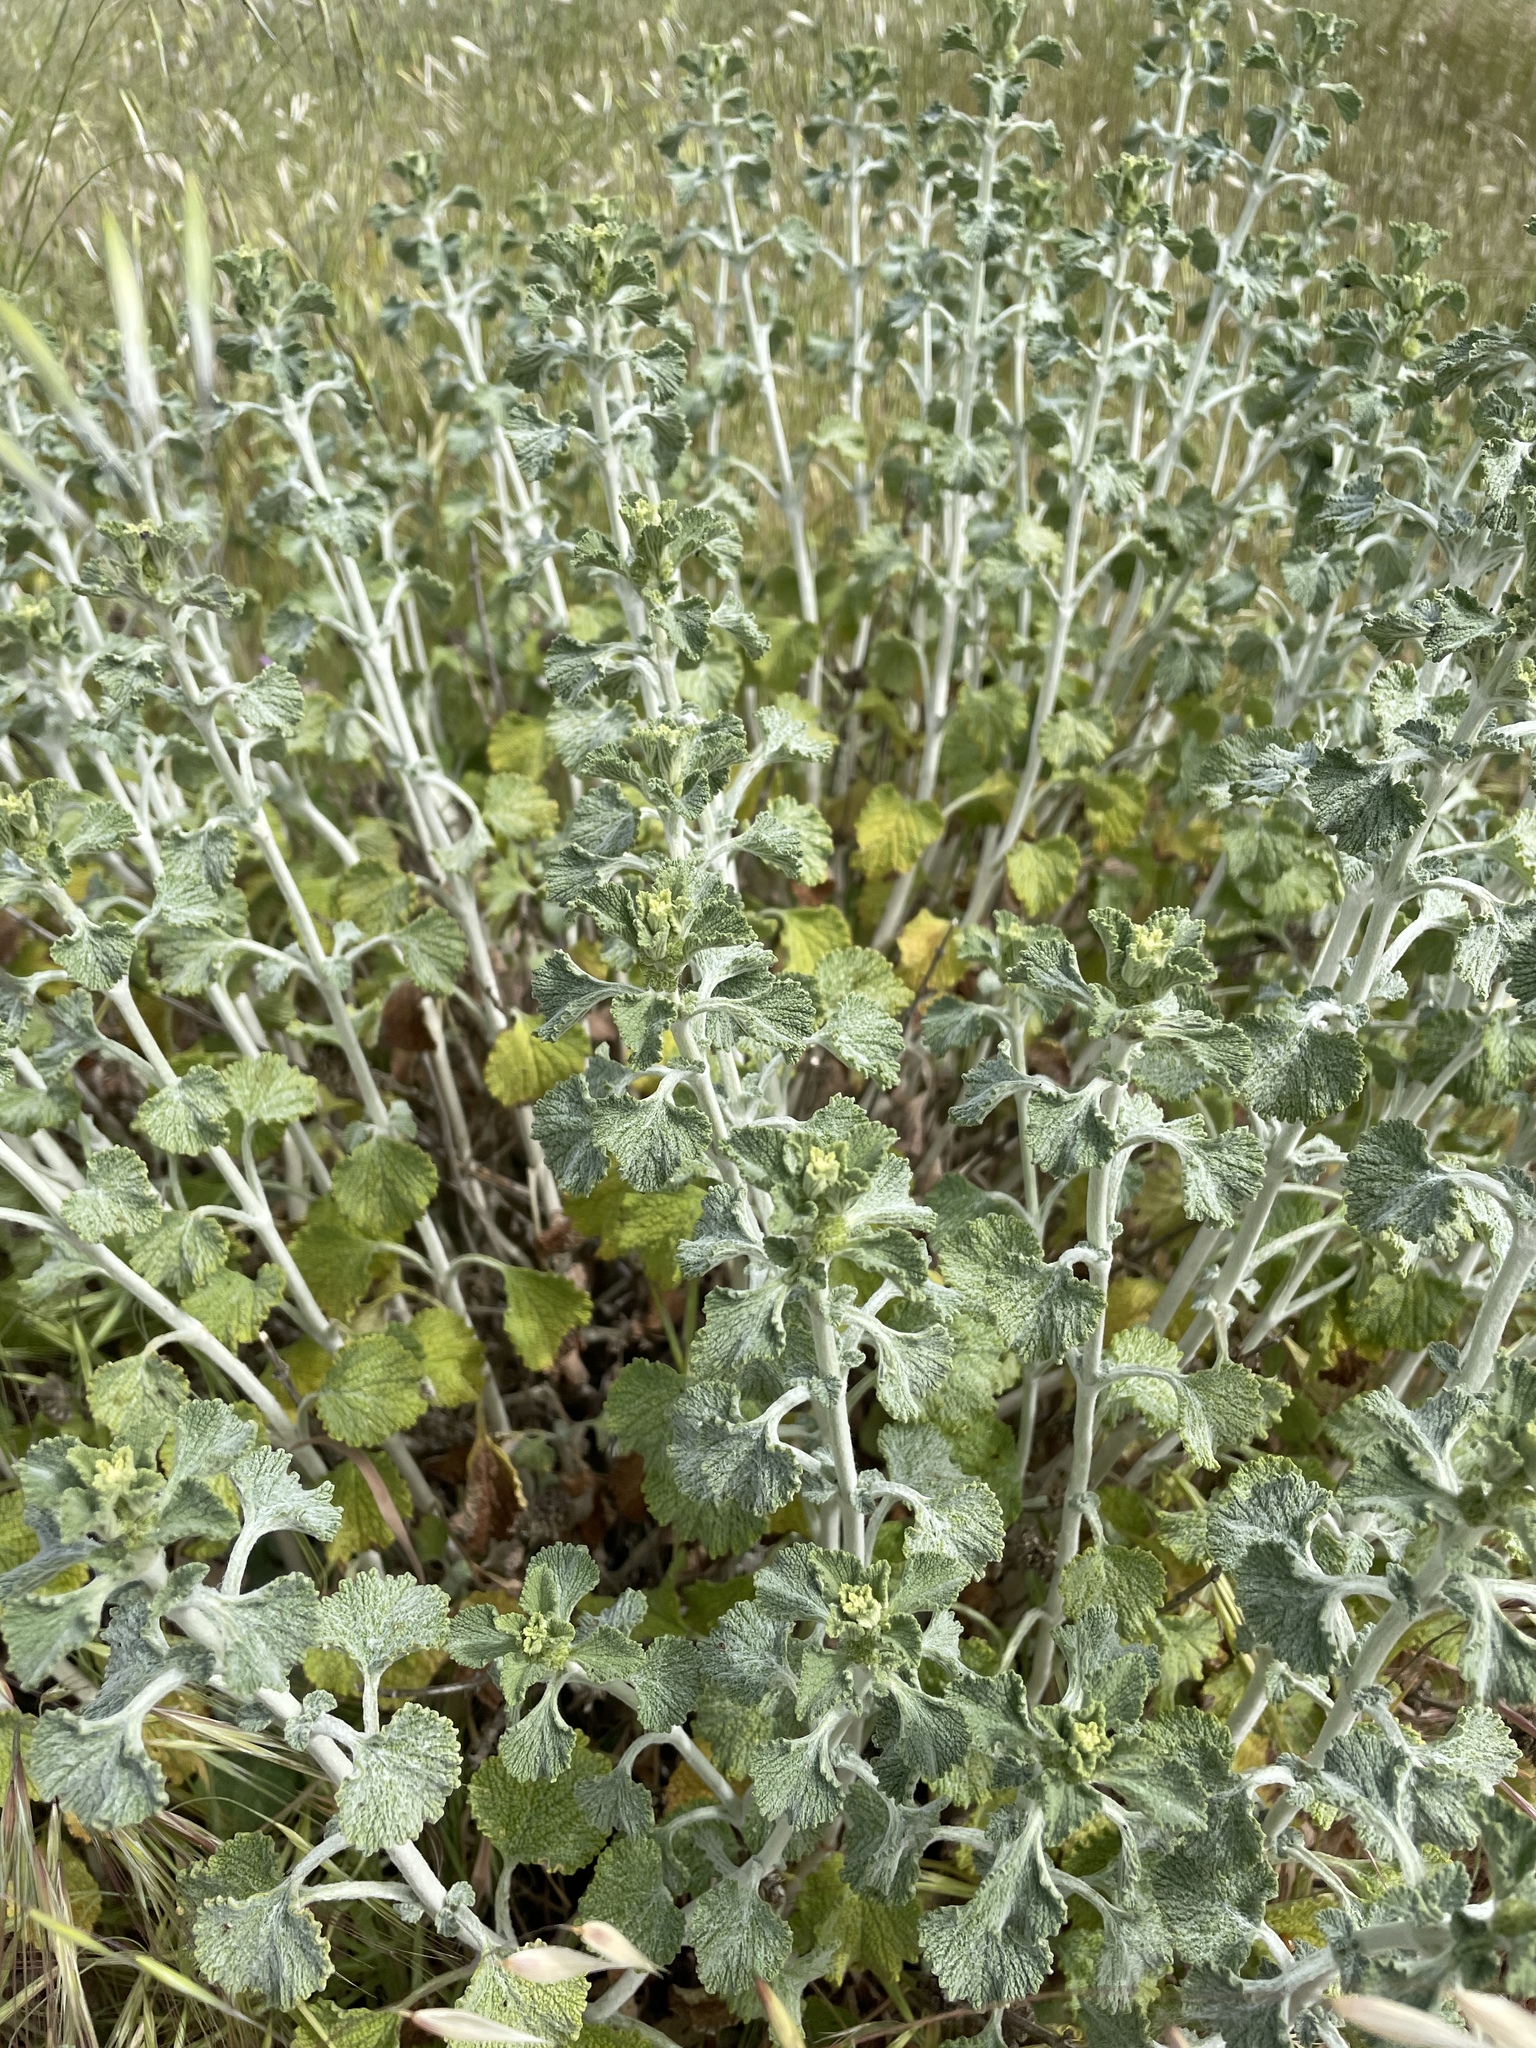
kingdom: Plantae
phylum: Tracheophyta
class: Magnoliopsida
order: Lamiales
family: Lamiaceae
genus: Marrubium
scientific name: Marrubium vulgare
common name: Horehound
